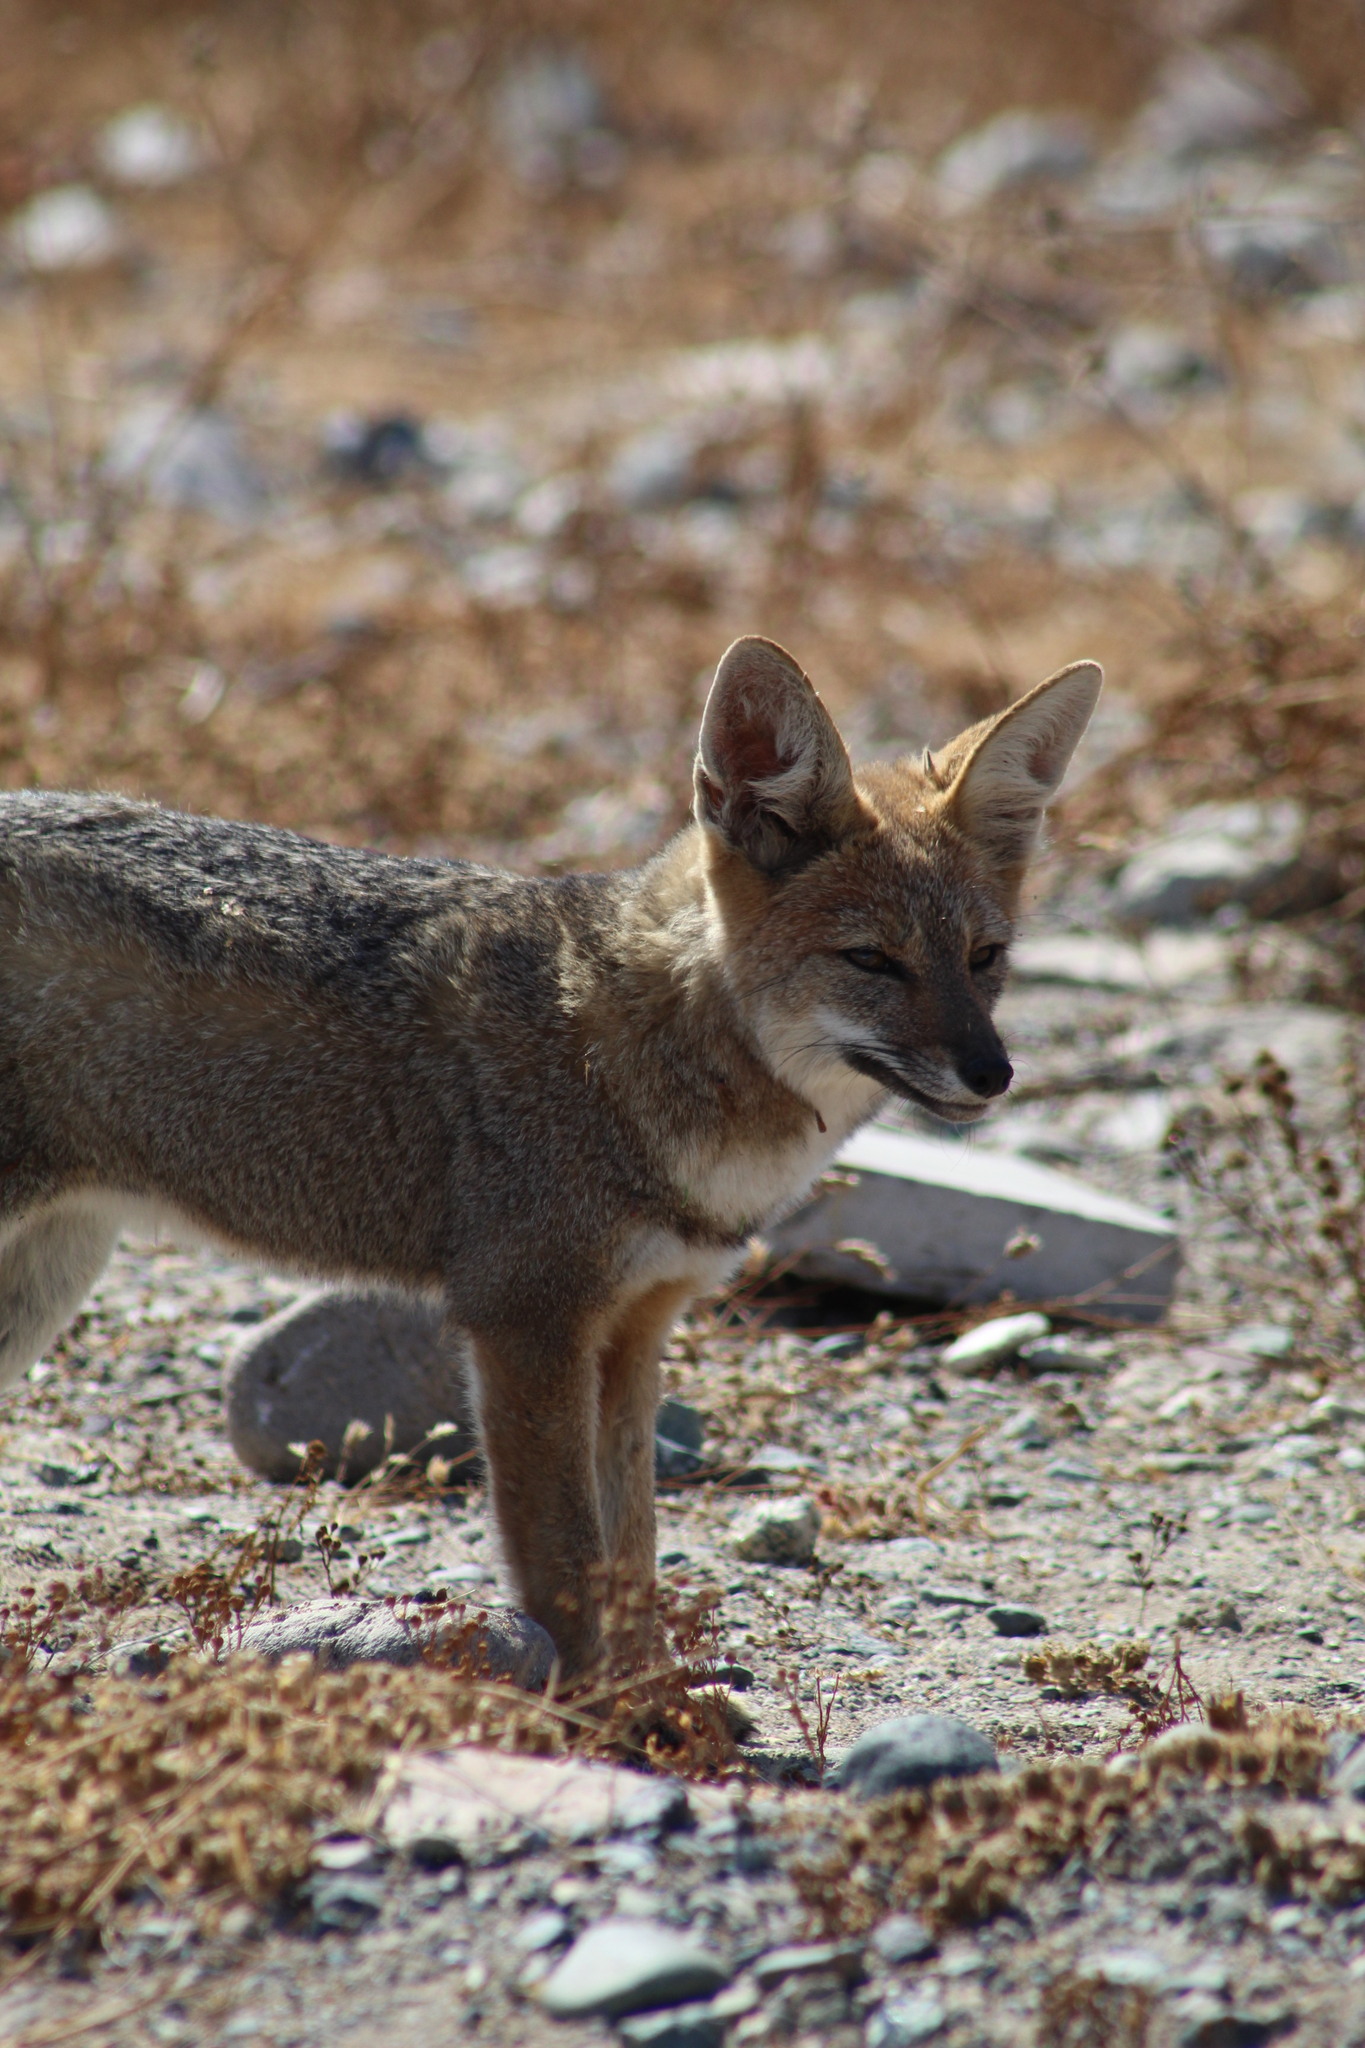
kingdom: Animalia
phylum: Chordata
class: Mammalia
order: Carnivora
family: Canidae
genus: Lycalopex
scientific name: Lycalopex gymnocercus
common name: Pampas fox
